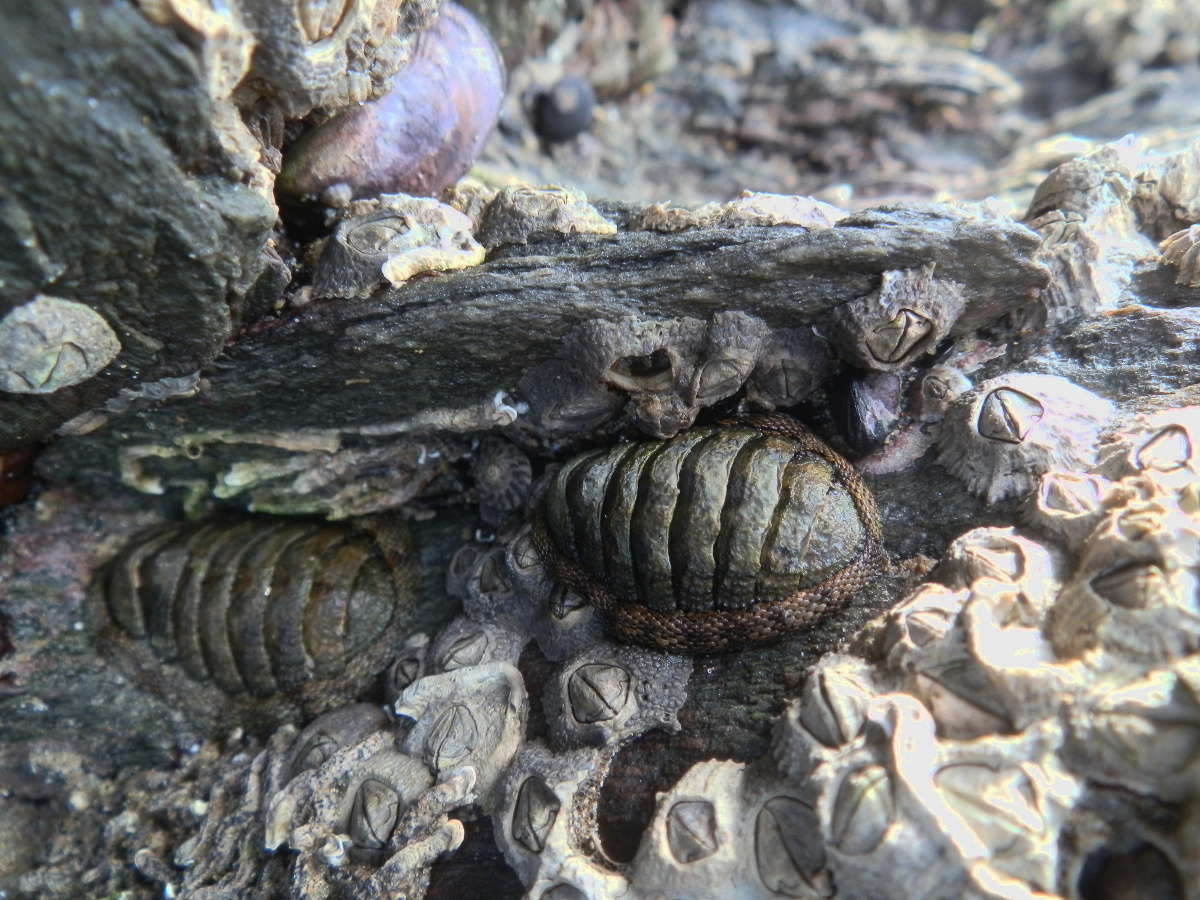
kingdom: Animalia
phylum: Mollusca
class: Polyplacophora
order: Chitonida
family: Chitonidae
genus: Sypharochiton
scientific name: Sypharochiton pelliserpentis
